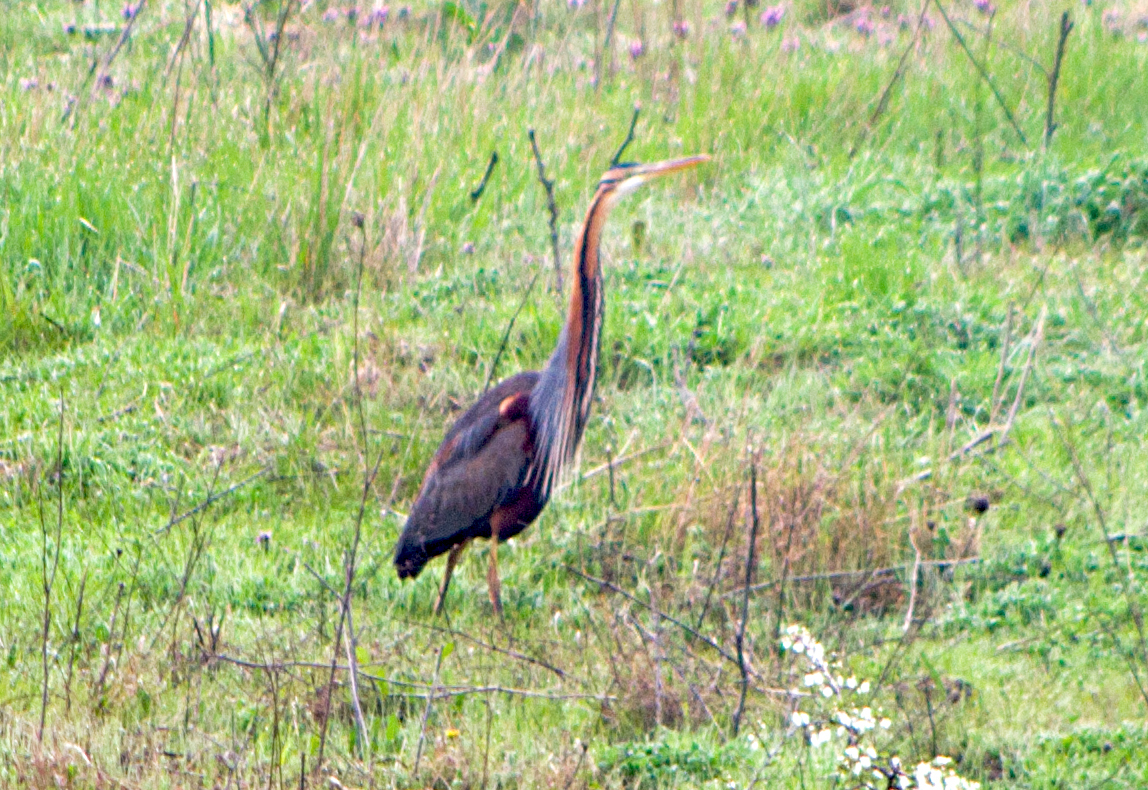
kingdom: Animalia
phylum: Chordata
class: Aves
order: Pelecaniformes
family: Ardeidae
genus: Ardea
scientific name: Ardea purpurea
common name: Purple heron
